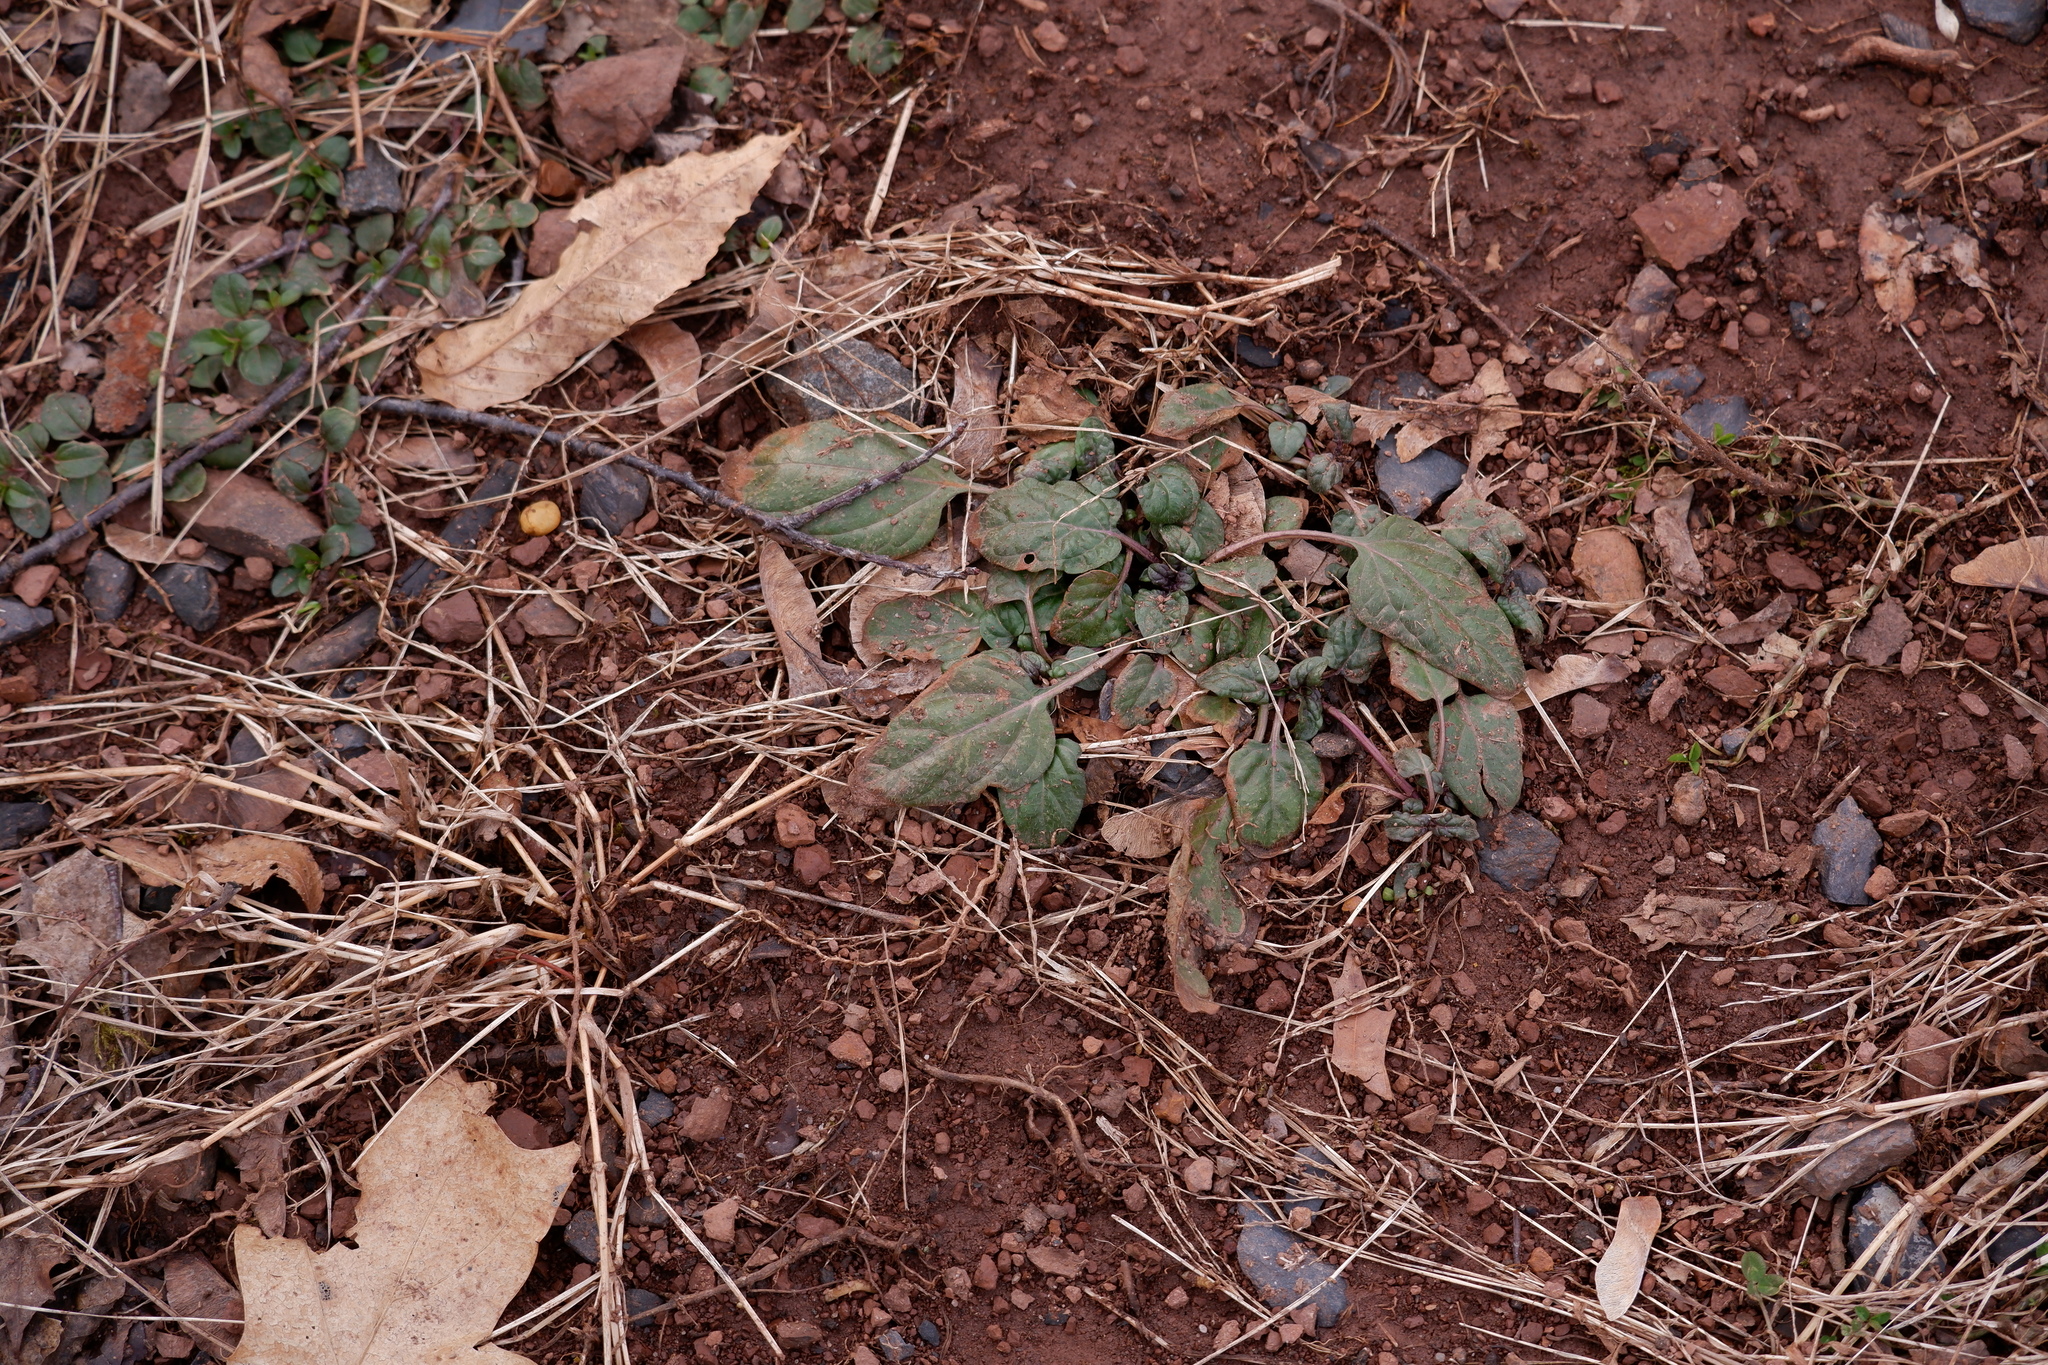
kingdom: Plantae
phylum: Tracheophyta
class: Magnoliopsida
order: Lamiales
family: Lamiaceae
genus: Prunella
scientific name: Prunella vulgaris
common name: Heal-all
